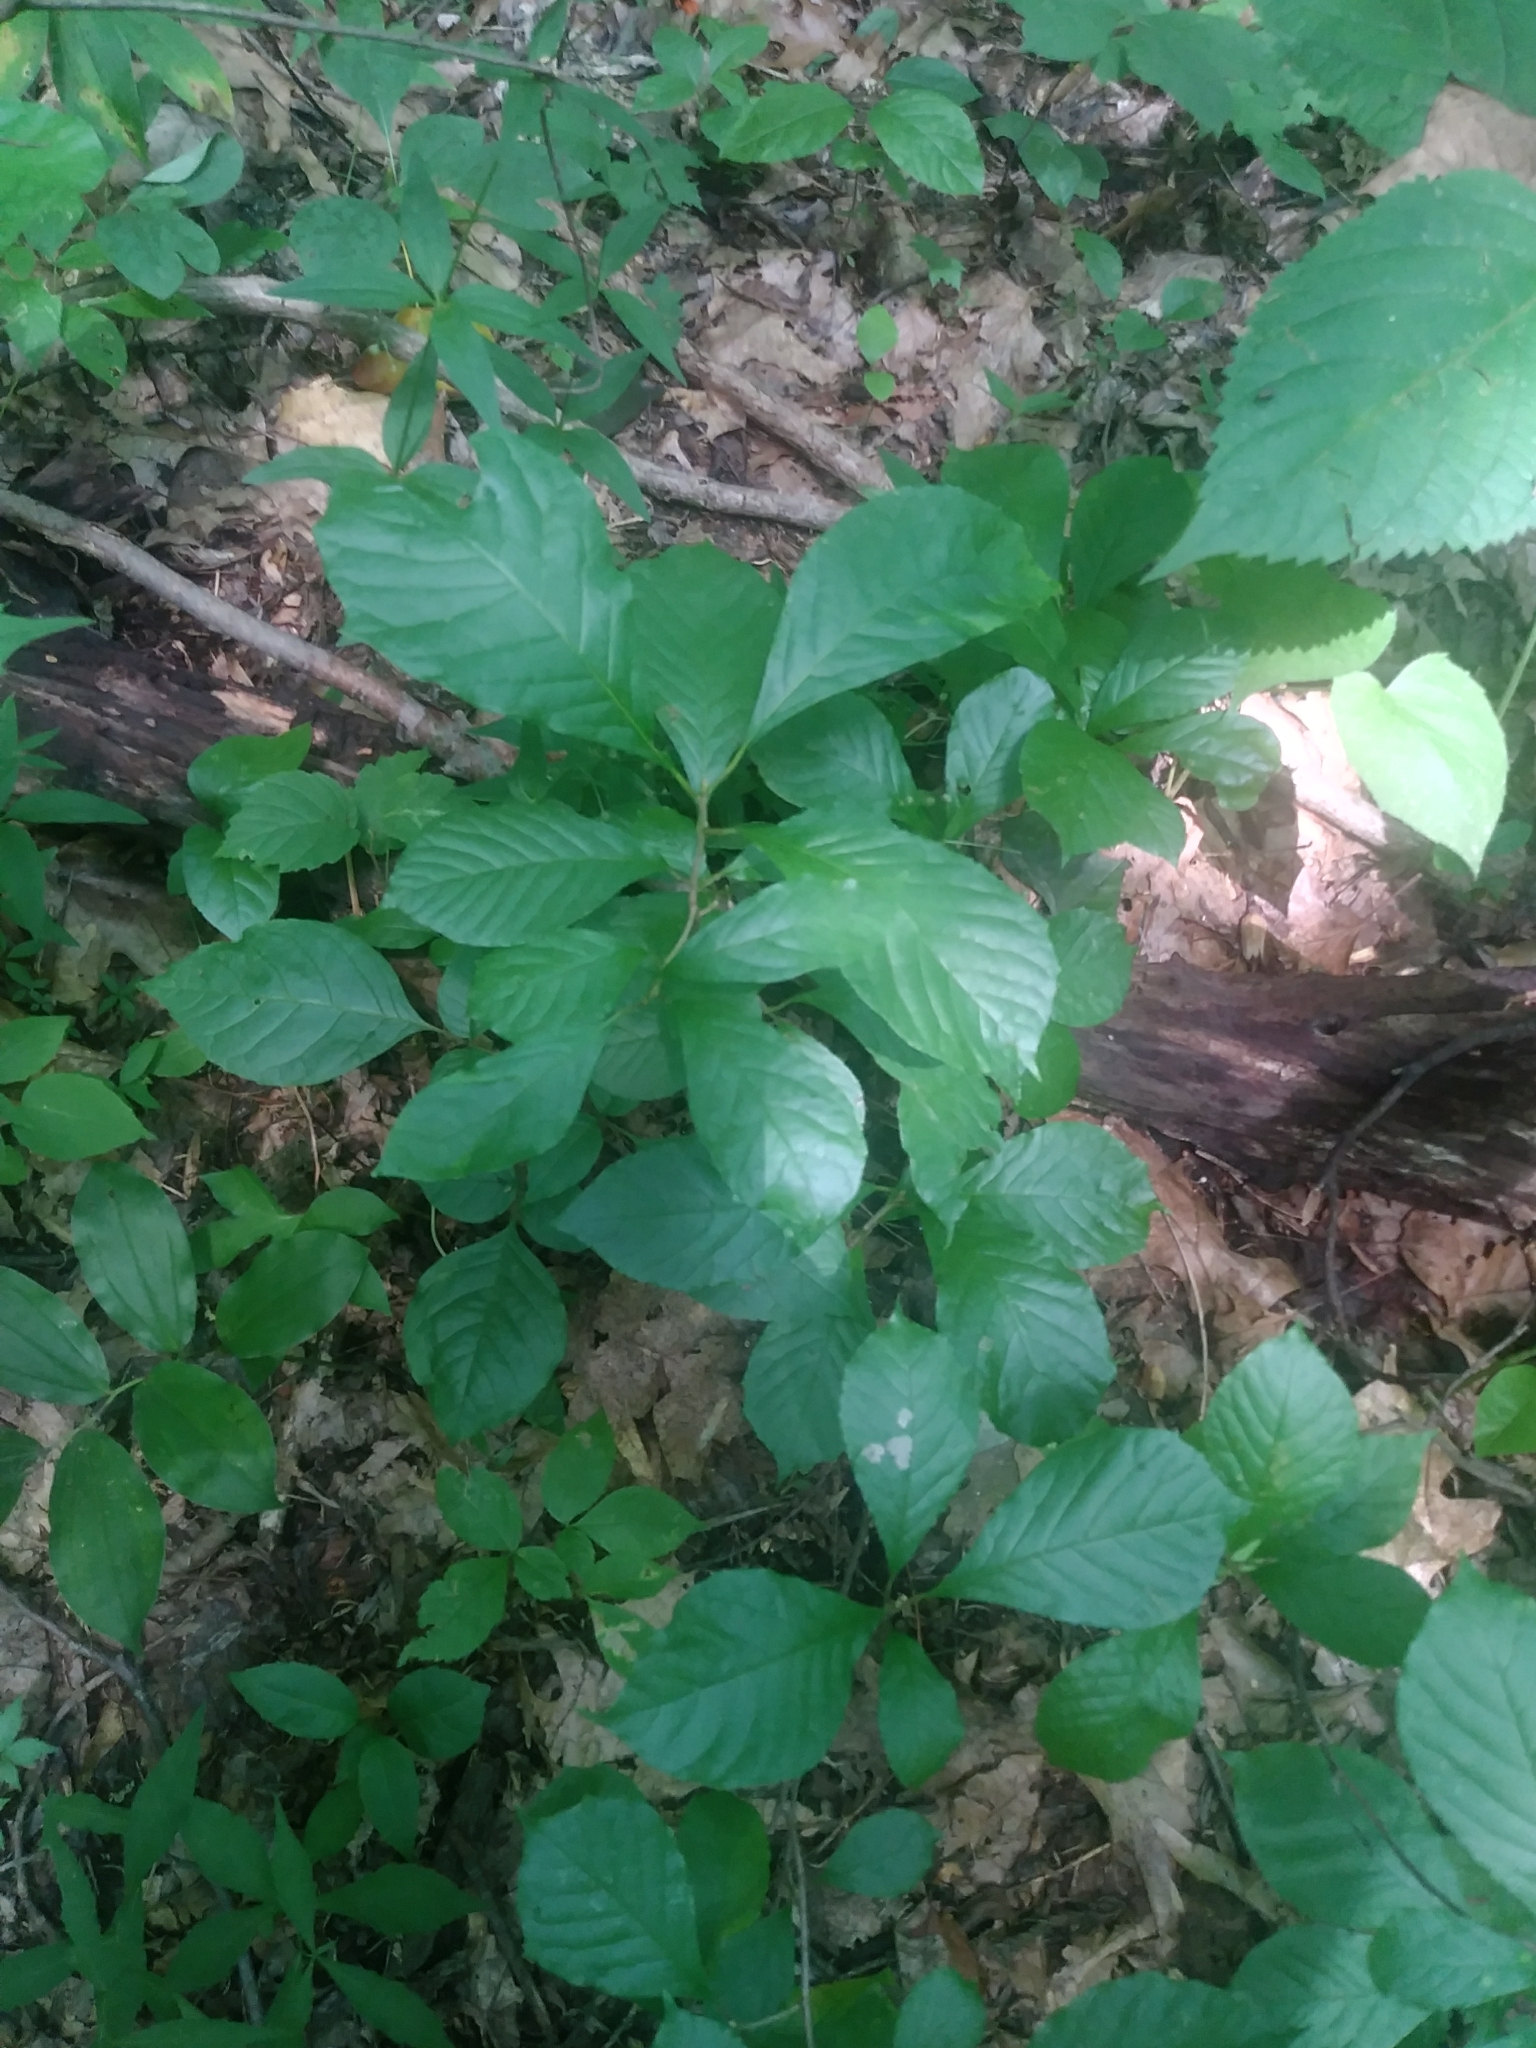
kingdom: Plantae
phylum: Tracheophyta
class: Magnoliopsida
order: Cornales
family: Nyssaceae
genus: Nyssa
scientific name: Nyssa sylvatica
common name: Black tupelo
